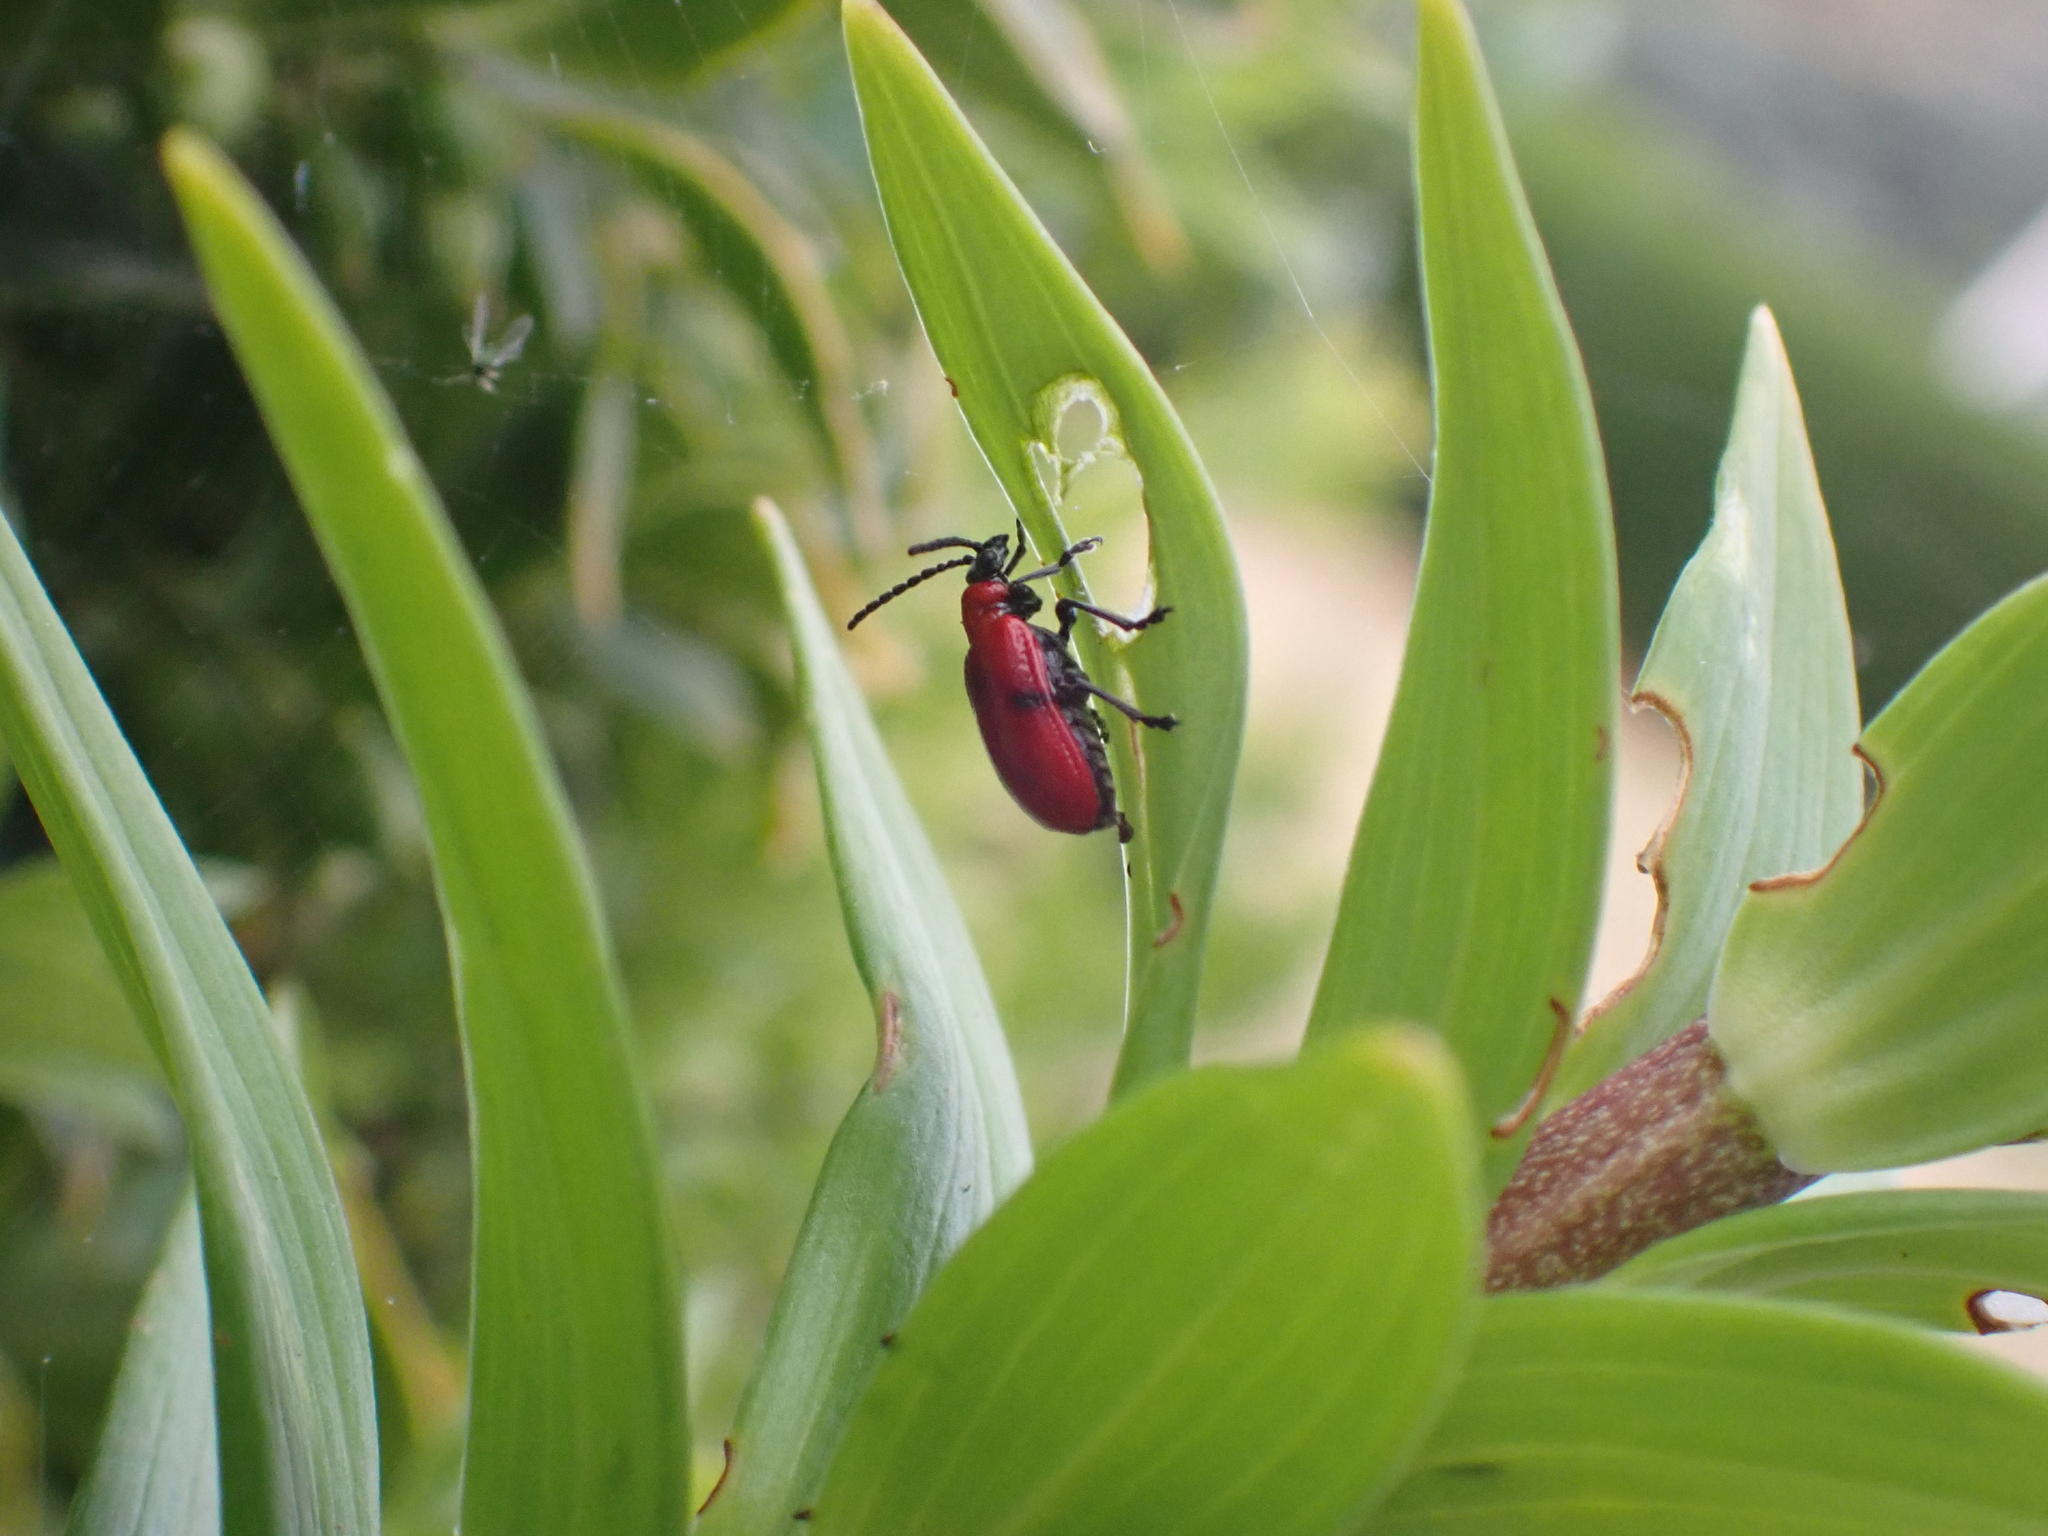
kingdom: Animalia
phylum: Arthropoda
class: Insecta
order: Coleoptera
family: Chrysomelidae
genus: Lilioceris
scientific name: Lilioceris lilii
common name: Lily beetle
